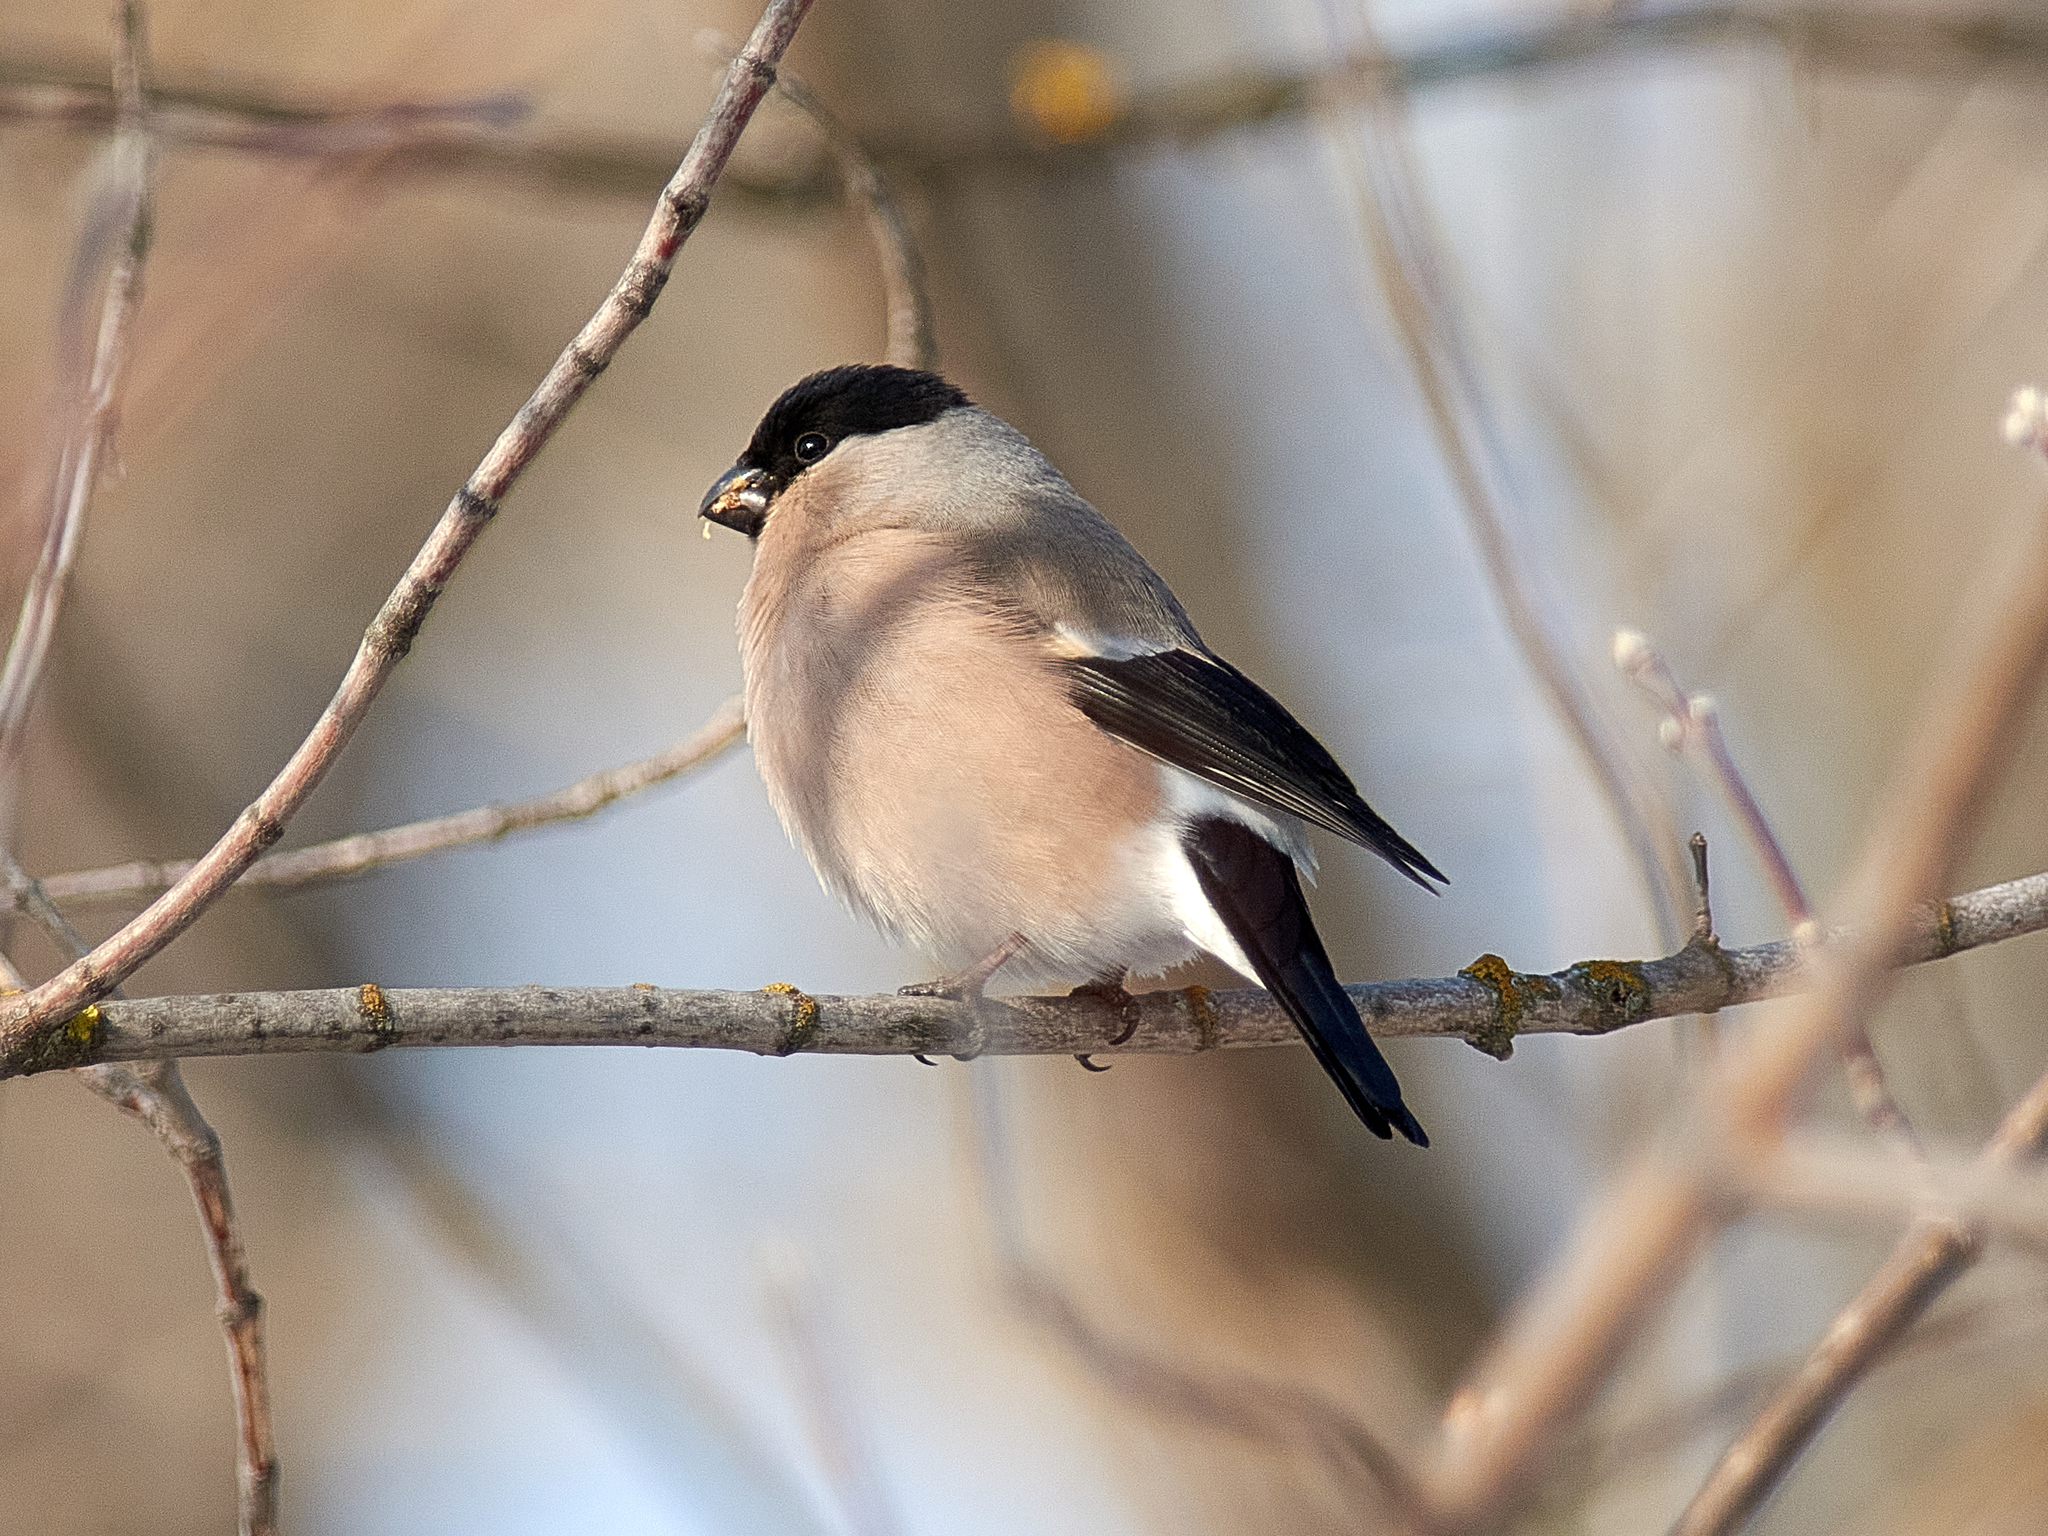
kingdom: Animalia
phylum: Chordata
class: Aves
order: Passeriformes
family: Fringillidae
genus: Pyrrhula
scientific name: Pyrrhula pyrrhula
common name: Eurasian bullfinch
